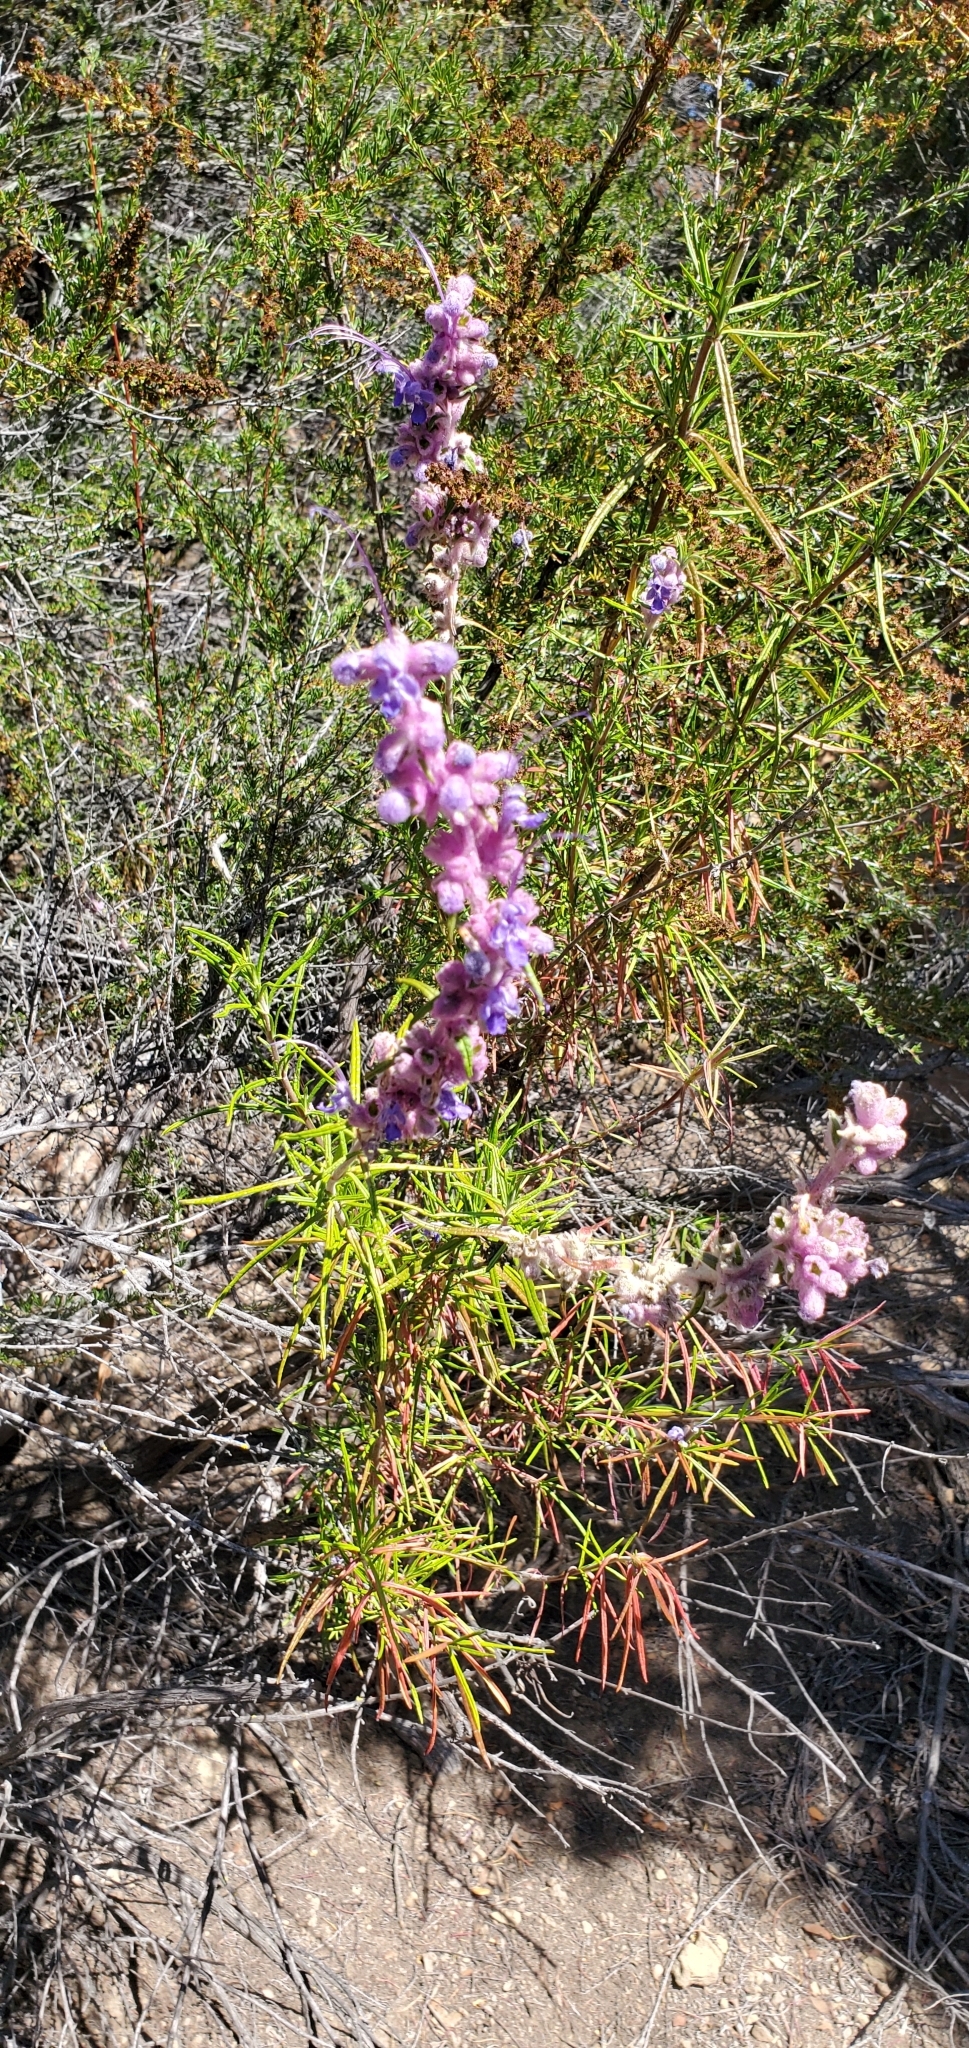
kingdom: Plantae
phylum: Tracheophyta
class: Magnoliopsida
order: Lamiales
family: Lamiaceae
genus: Trichostema
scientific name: Trichostema lanatum
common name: Woolly bluecurls
